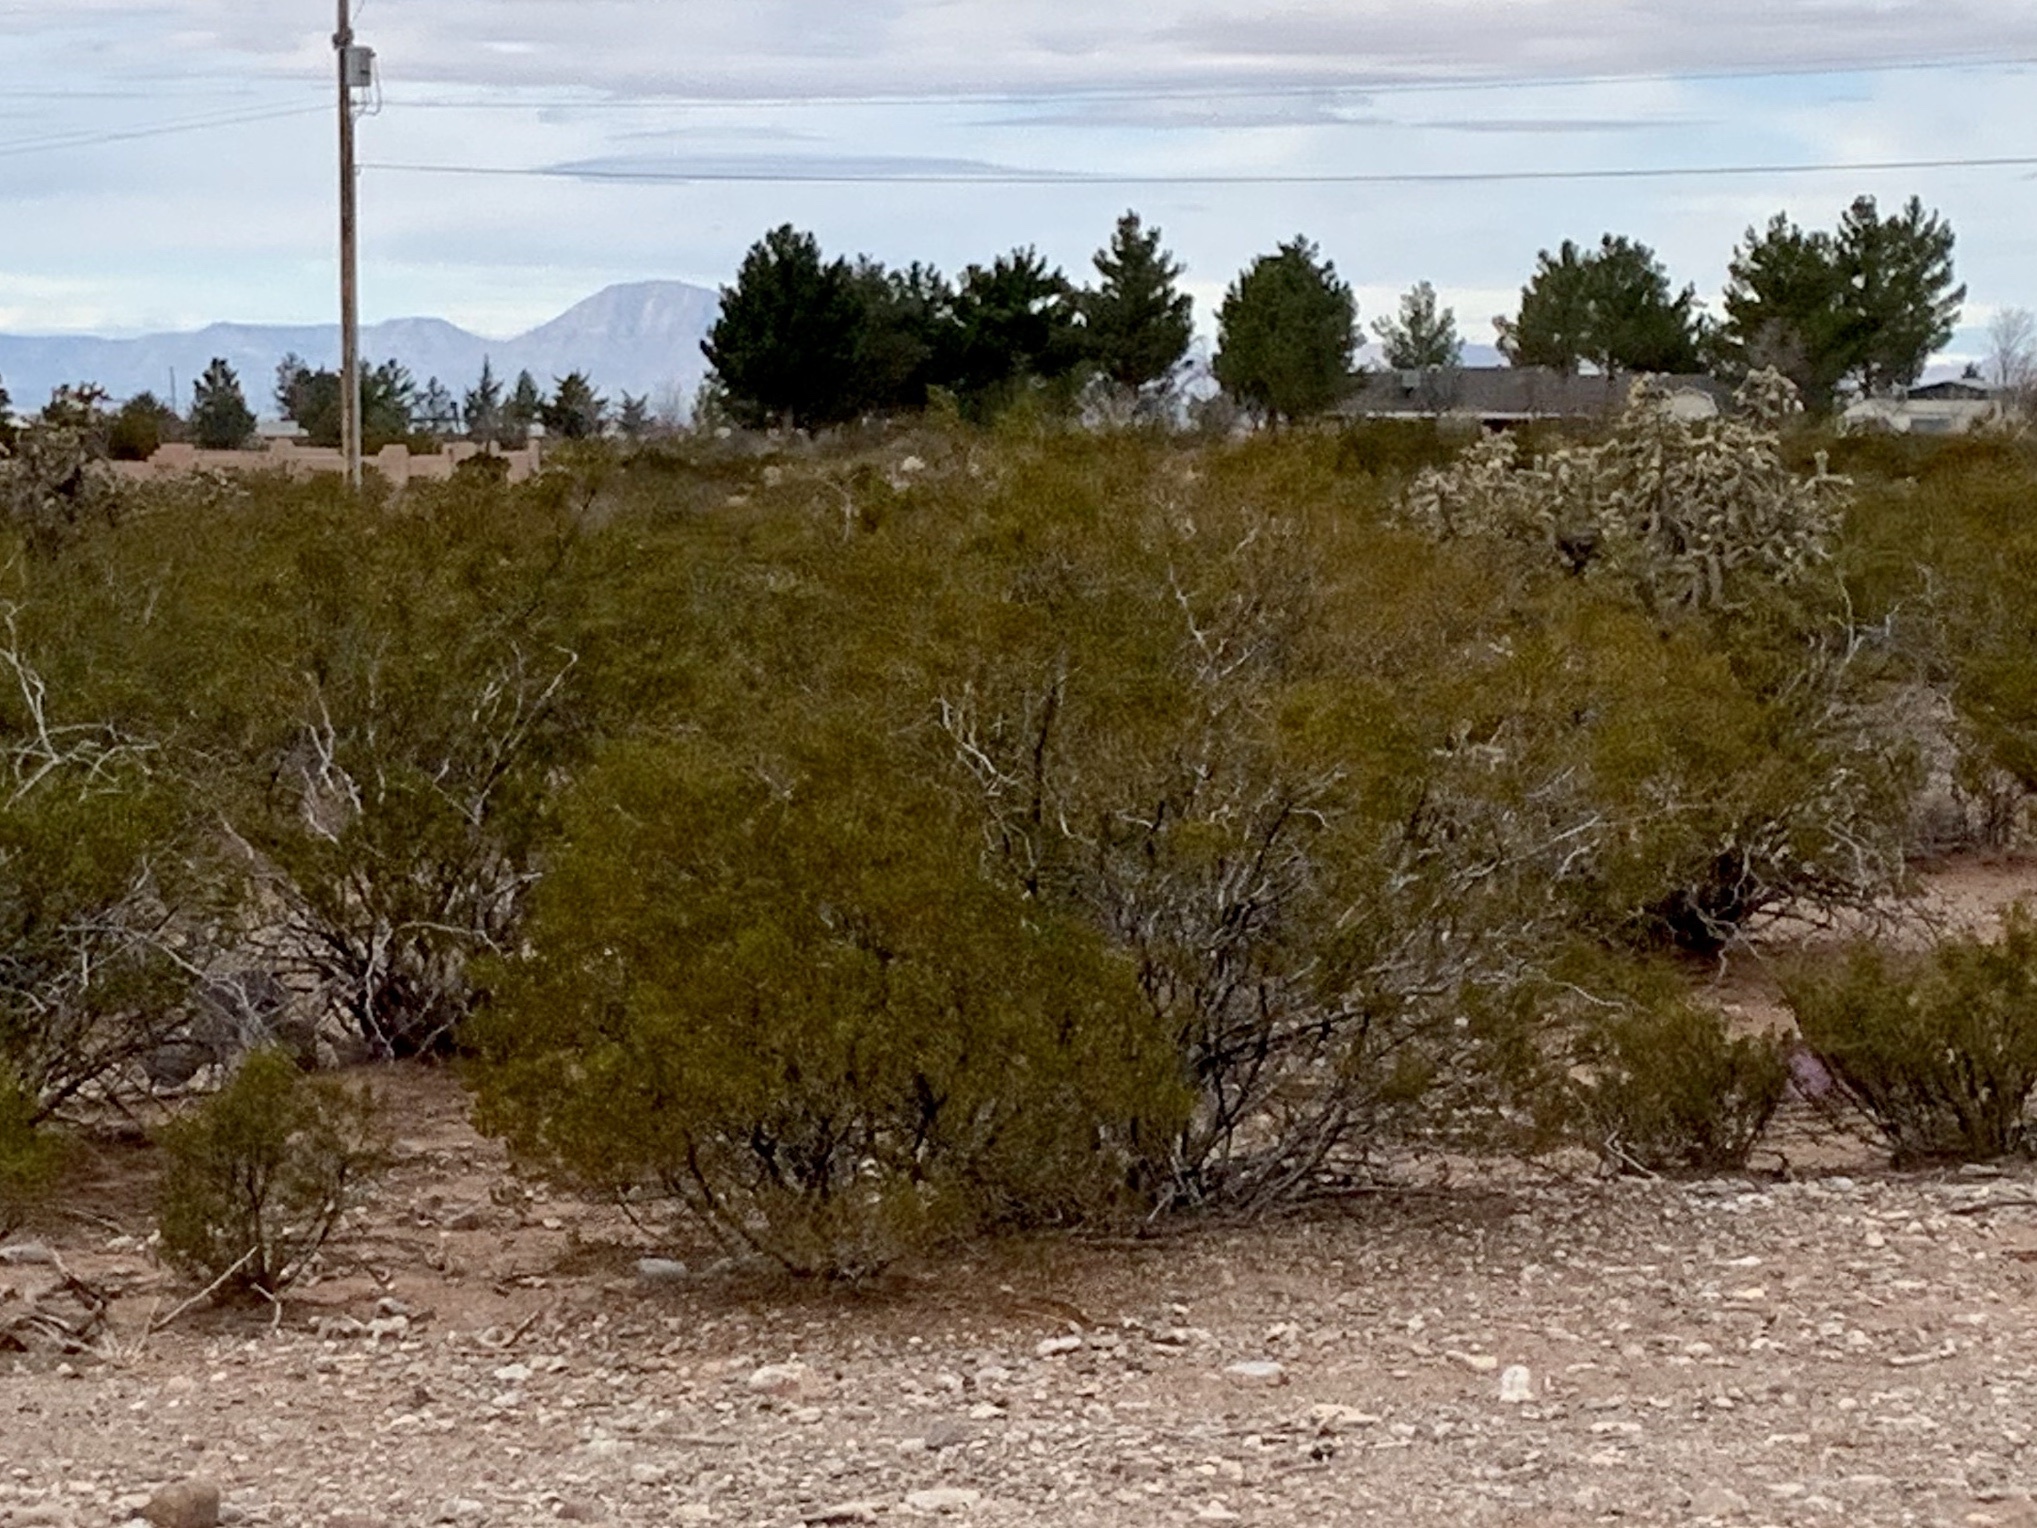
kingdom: Plantae
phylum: Tracheophyta
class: Magnoliopsida
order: Zygophyllales
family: Zygophyllaceae
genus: Larrea
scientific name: Larrea tridentata
